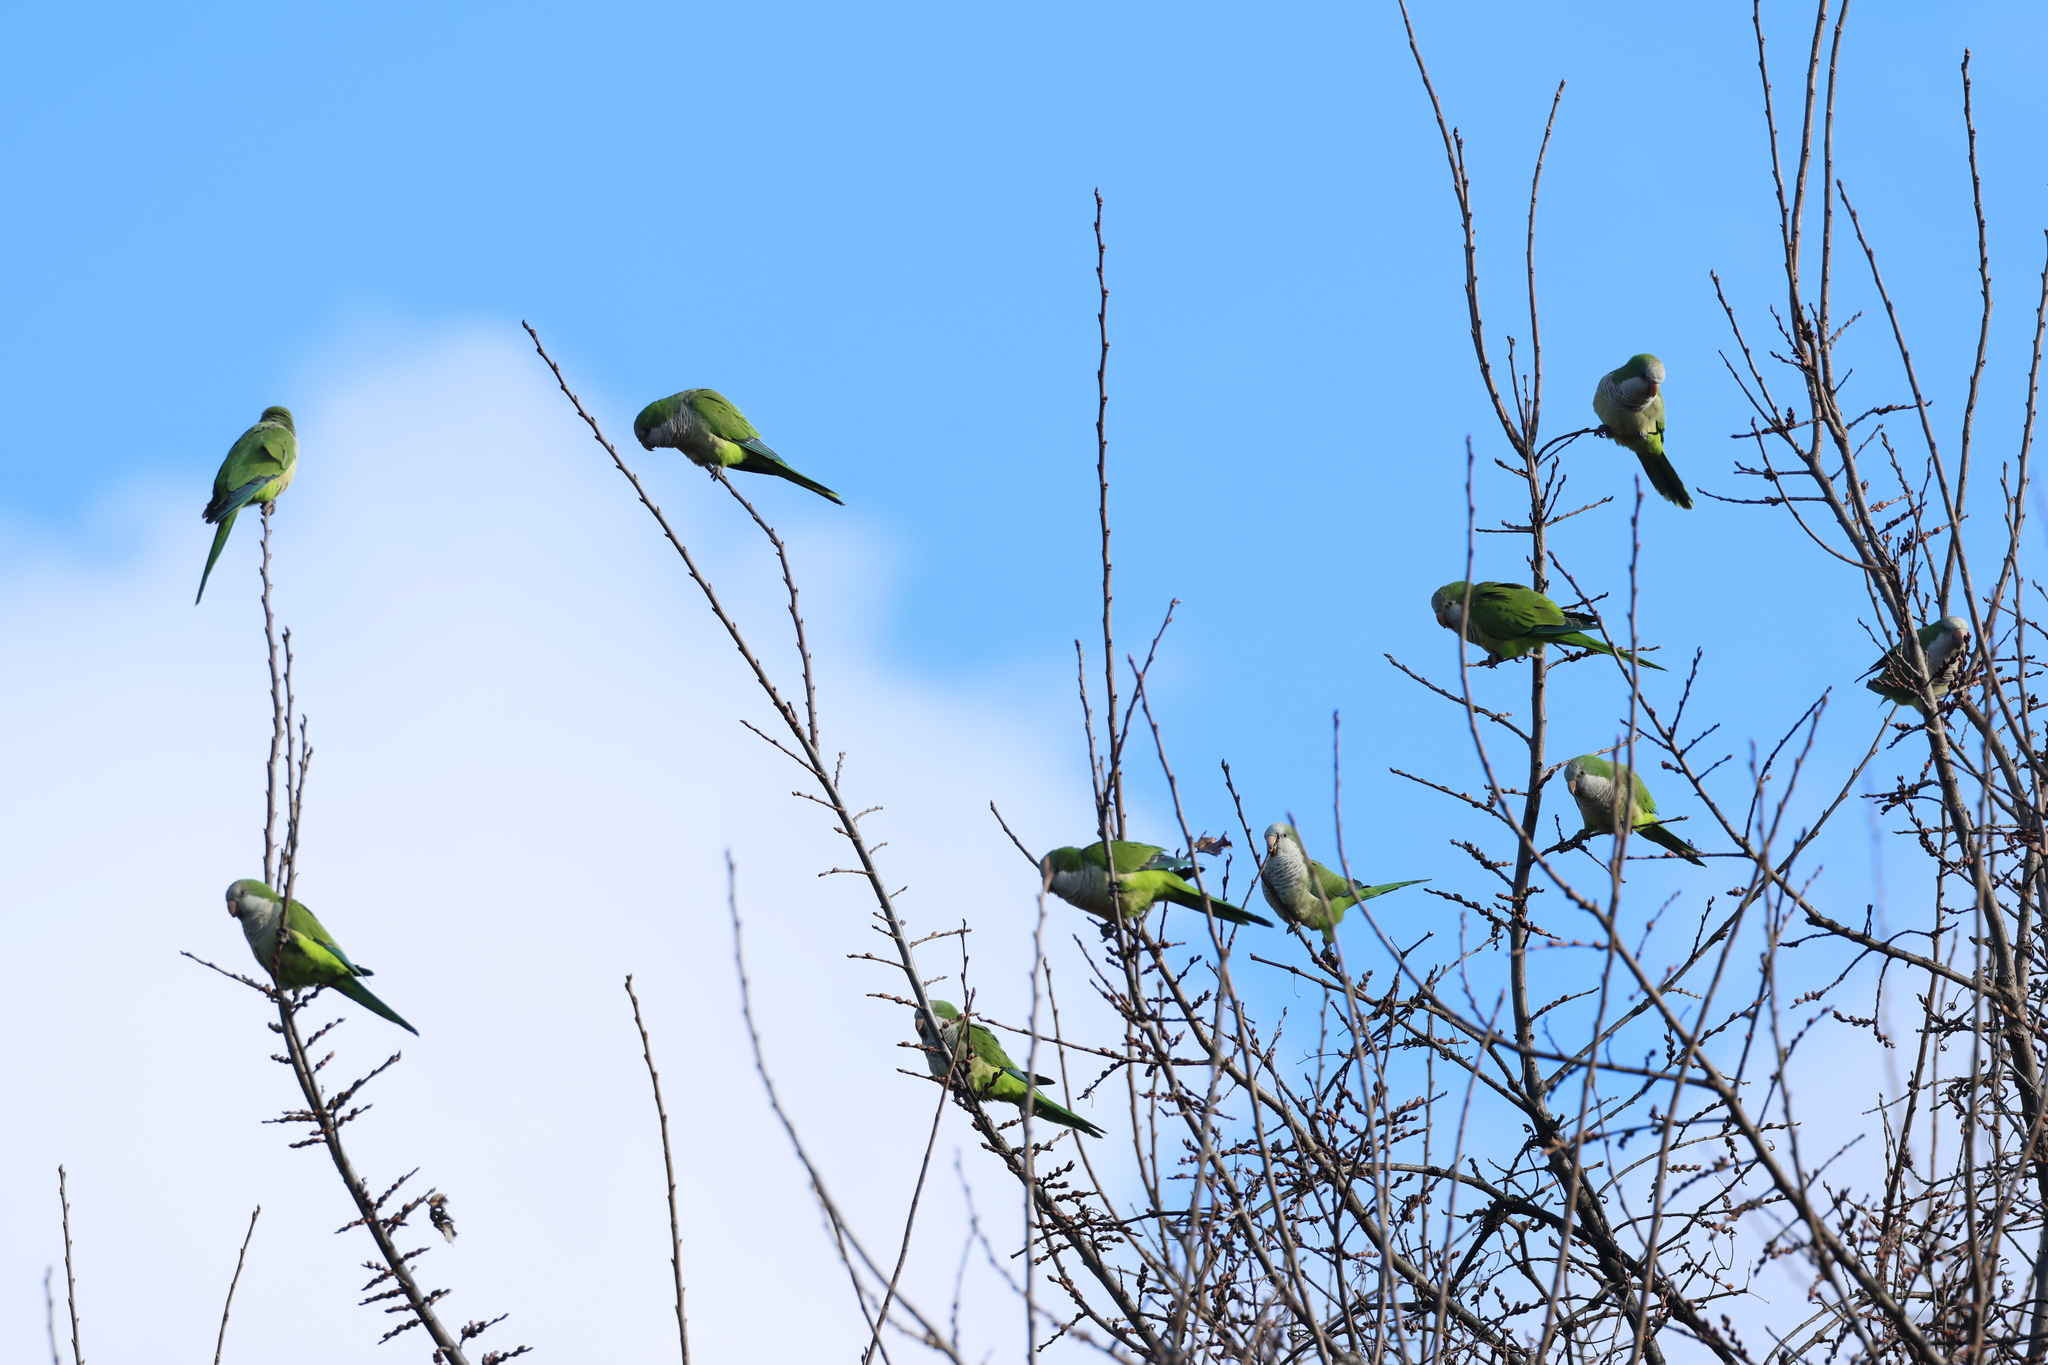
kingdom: Animalia
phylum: Chordata
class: Aves
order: Psittaciformes
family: Psittacidae
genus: Myiopsitta
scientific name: Myiopsitta monachus
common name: Monk parakeet
